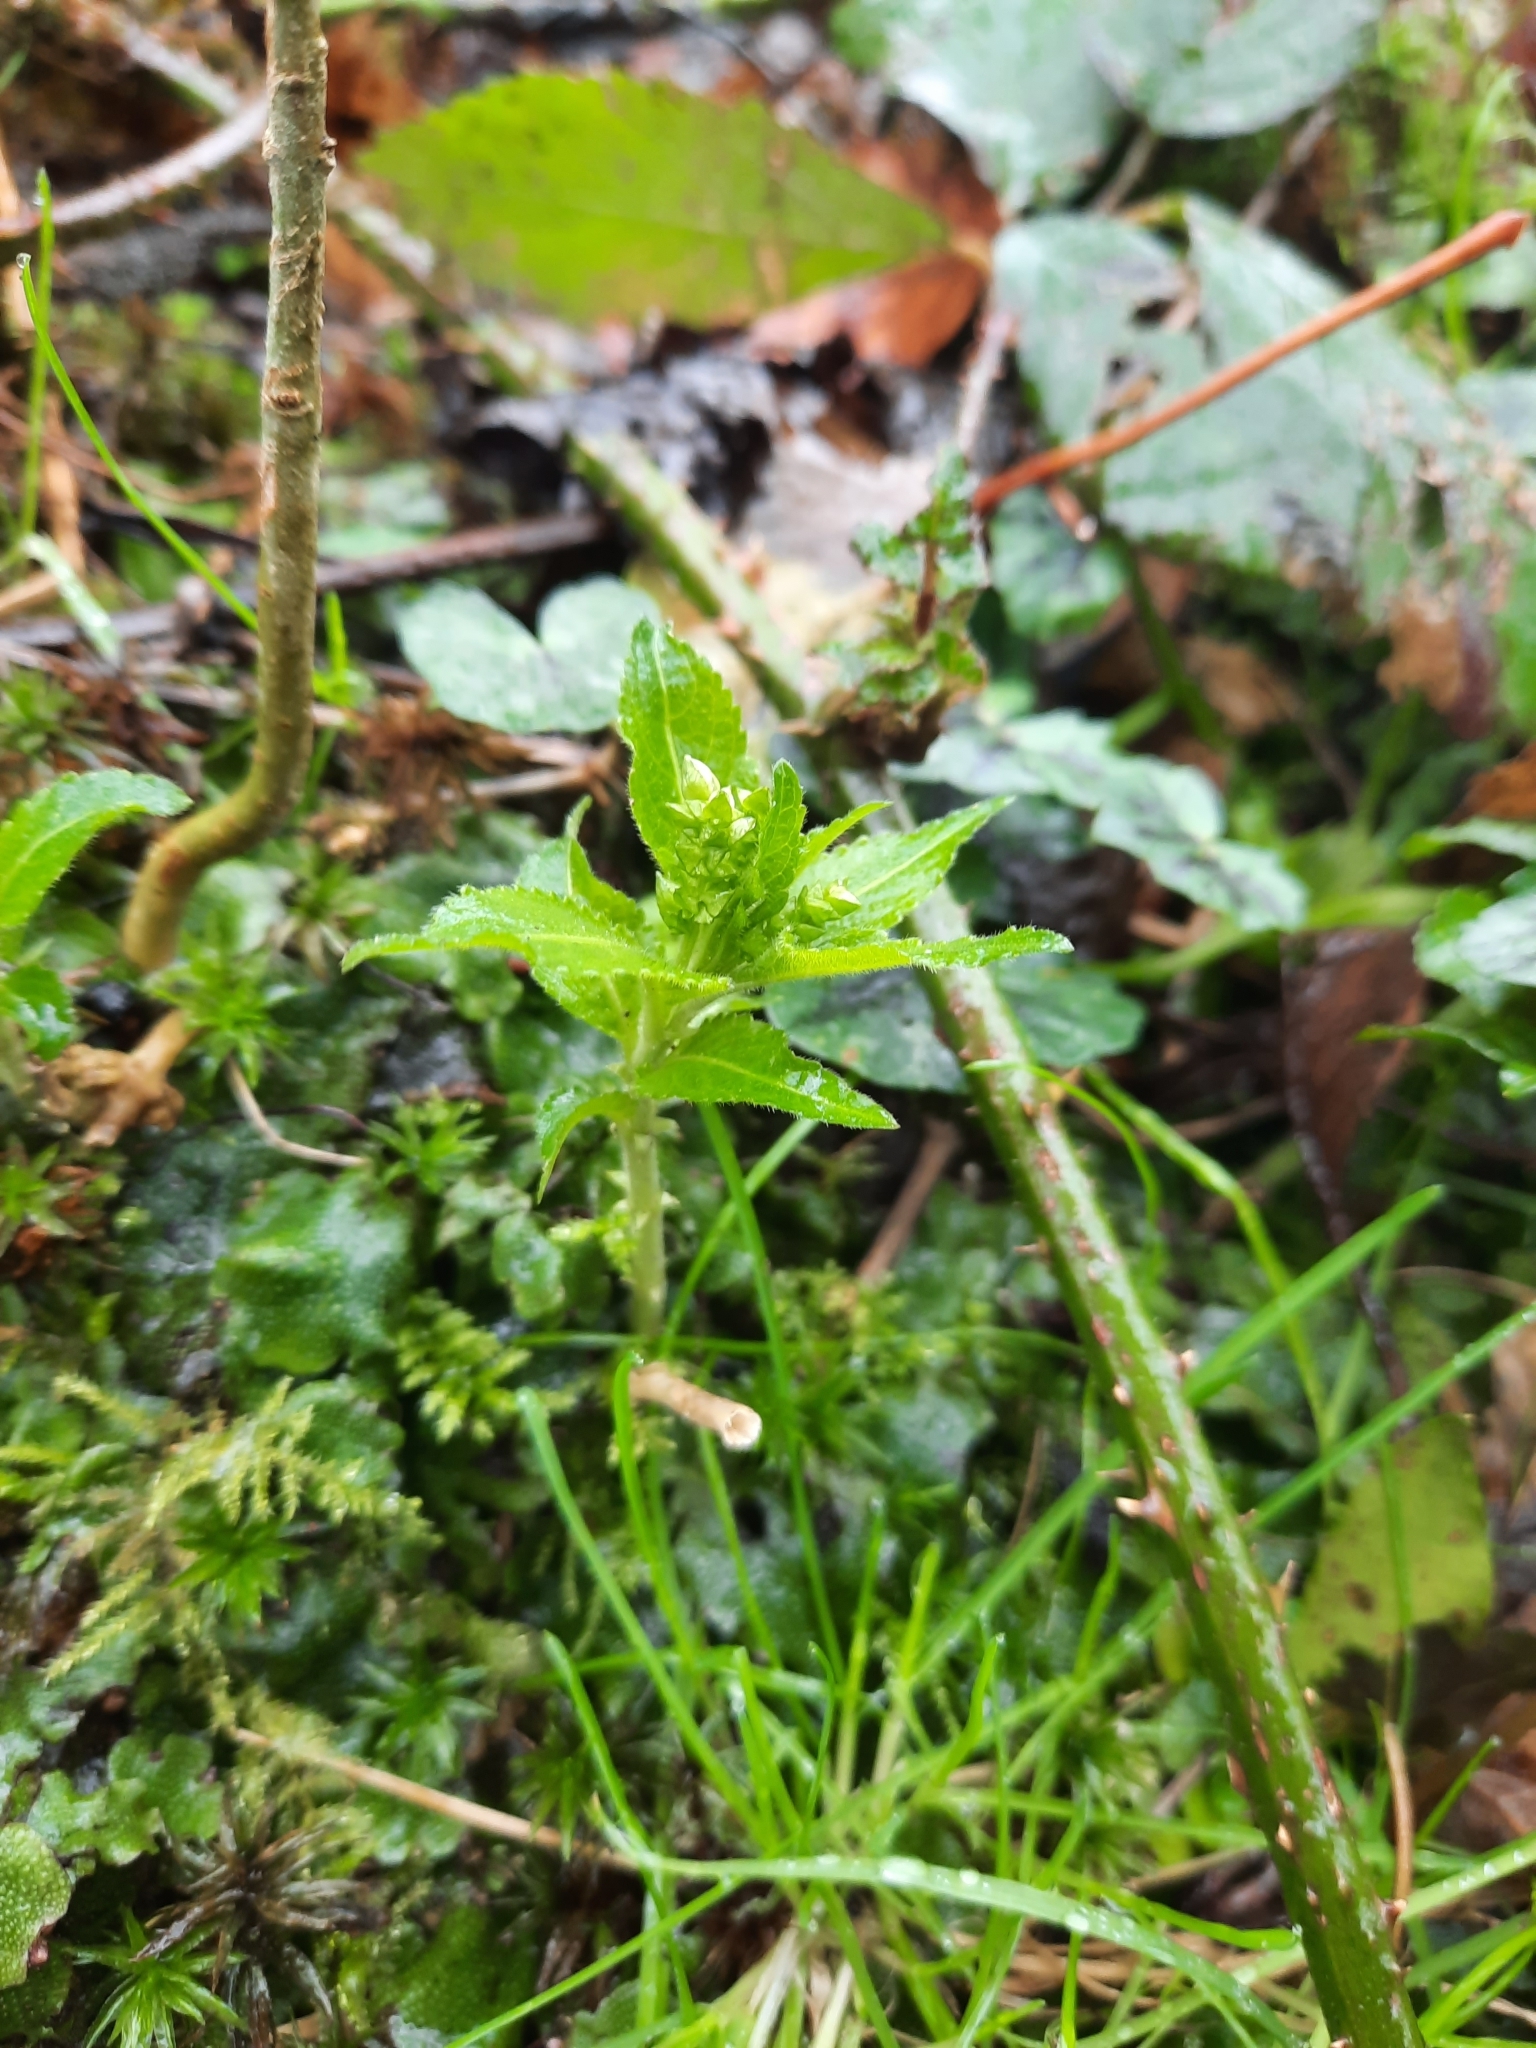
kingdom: Plantae
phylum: Tracheophyta
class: Magnoliopsida
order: Malpighiales
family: Euphorbiaceae
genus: Mercurialis
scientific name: Mercurialis perennis
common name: Dog mercury
